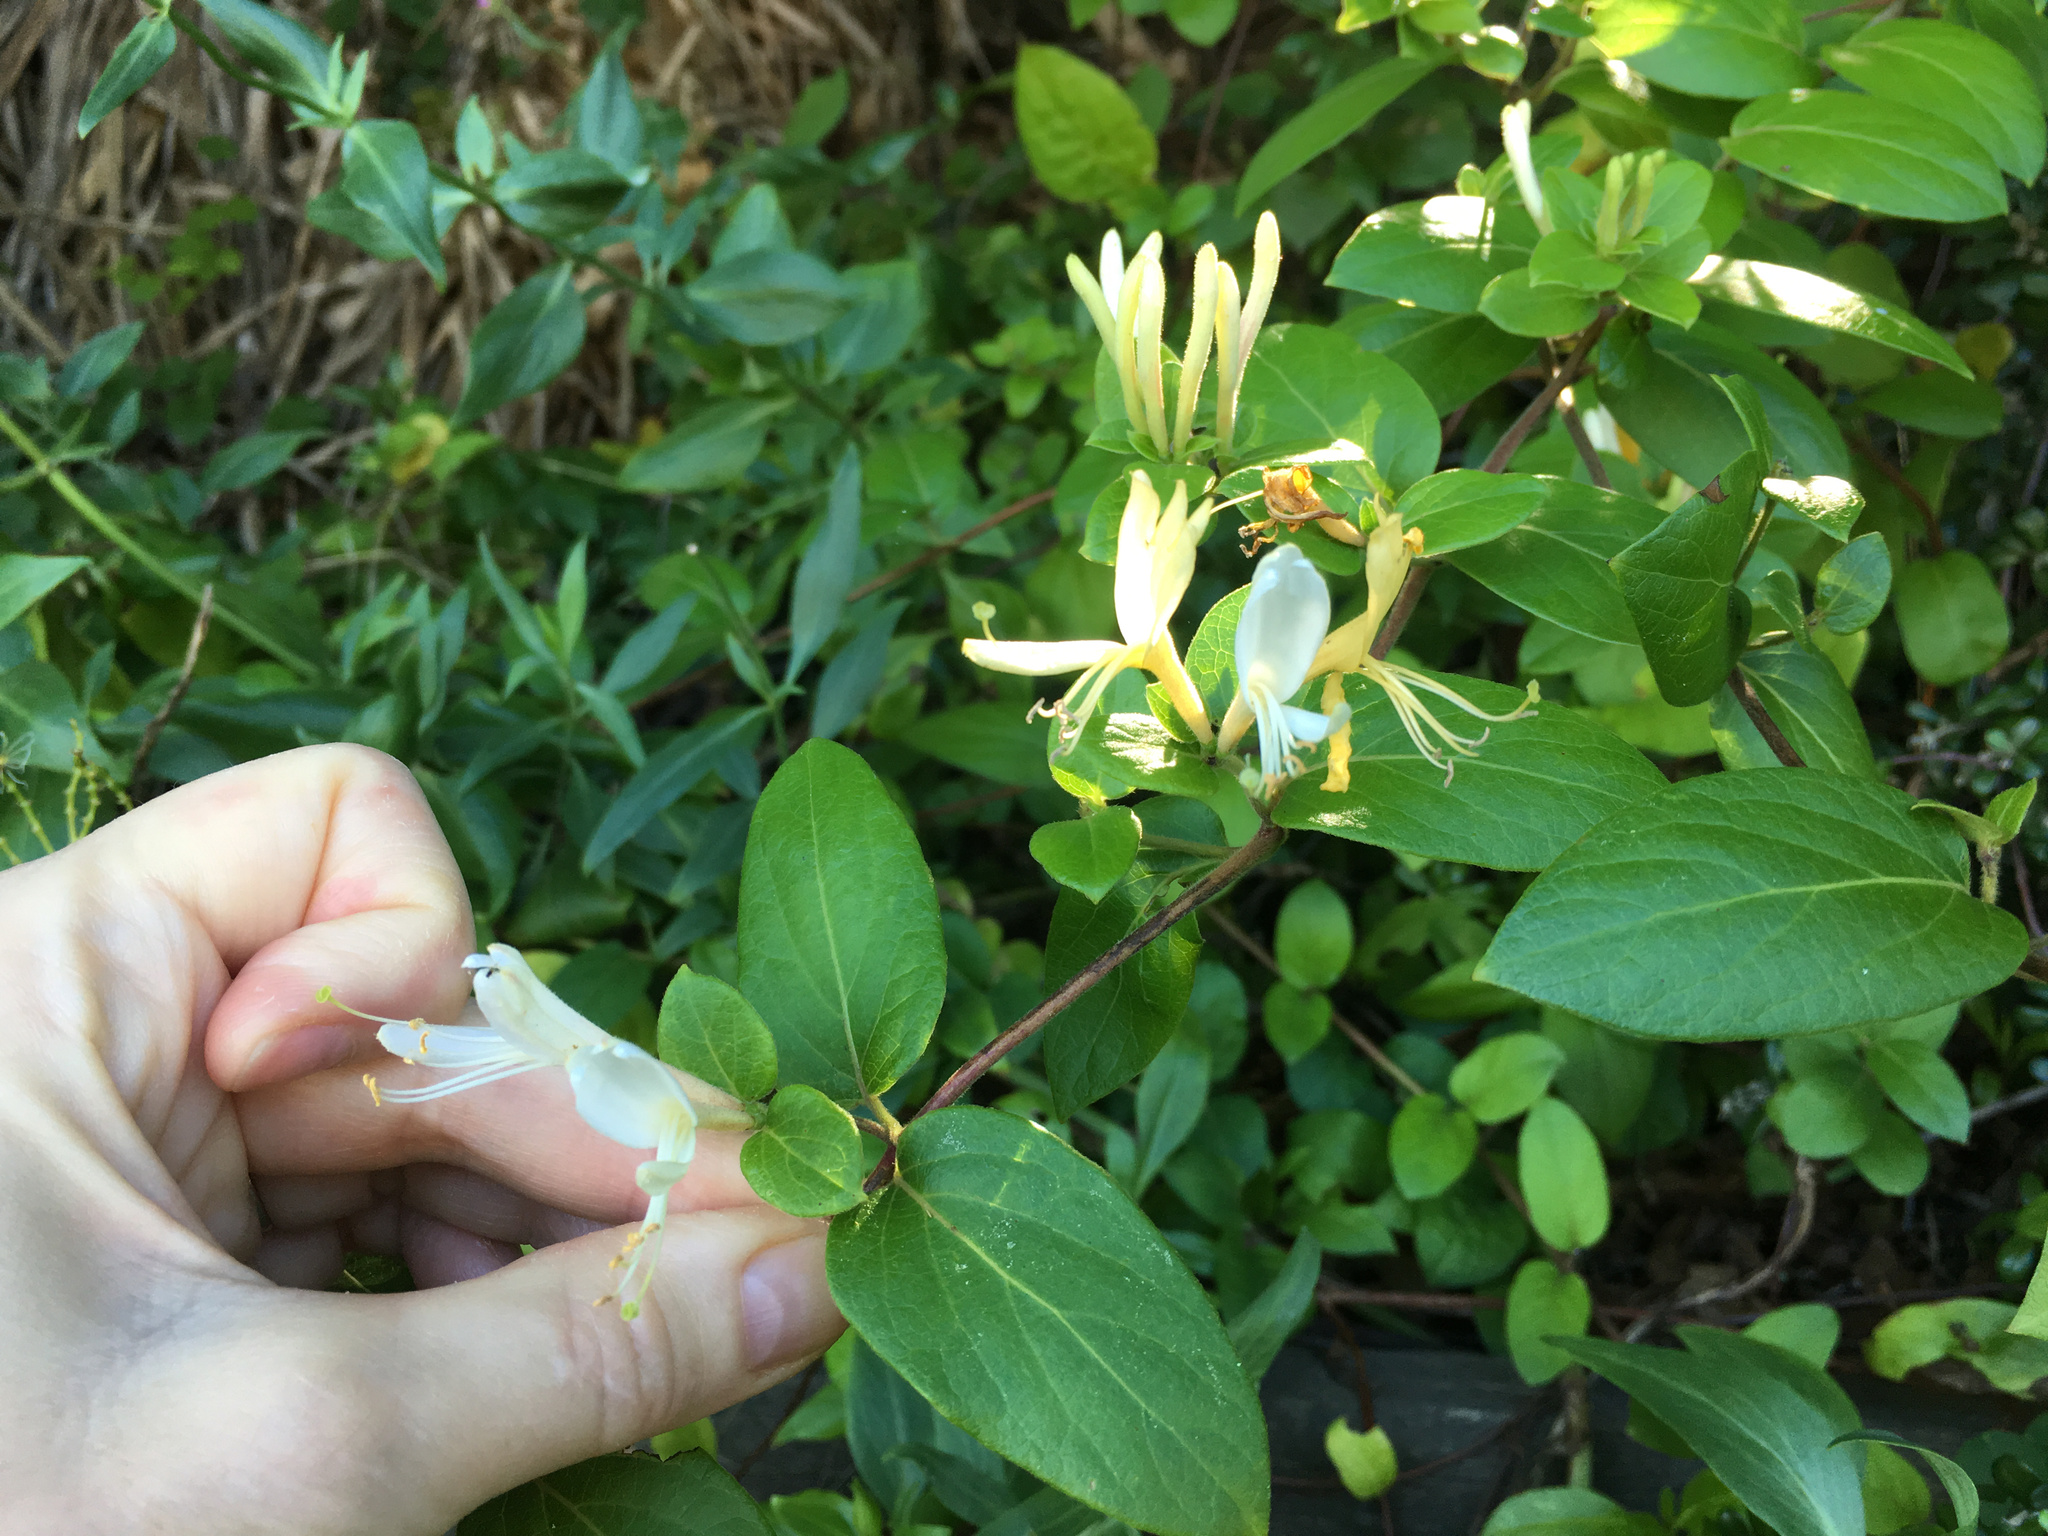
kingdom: Plantae
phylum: Tracheophyta
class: Magnoliopsida
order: Dipsacales
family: Caprifoliaceae
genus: Lonicera
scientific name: Lonicera japonica
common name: Japanese honeysuckle
